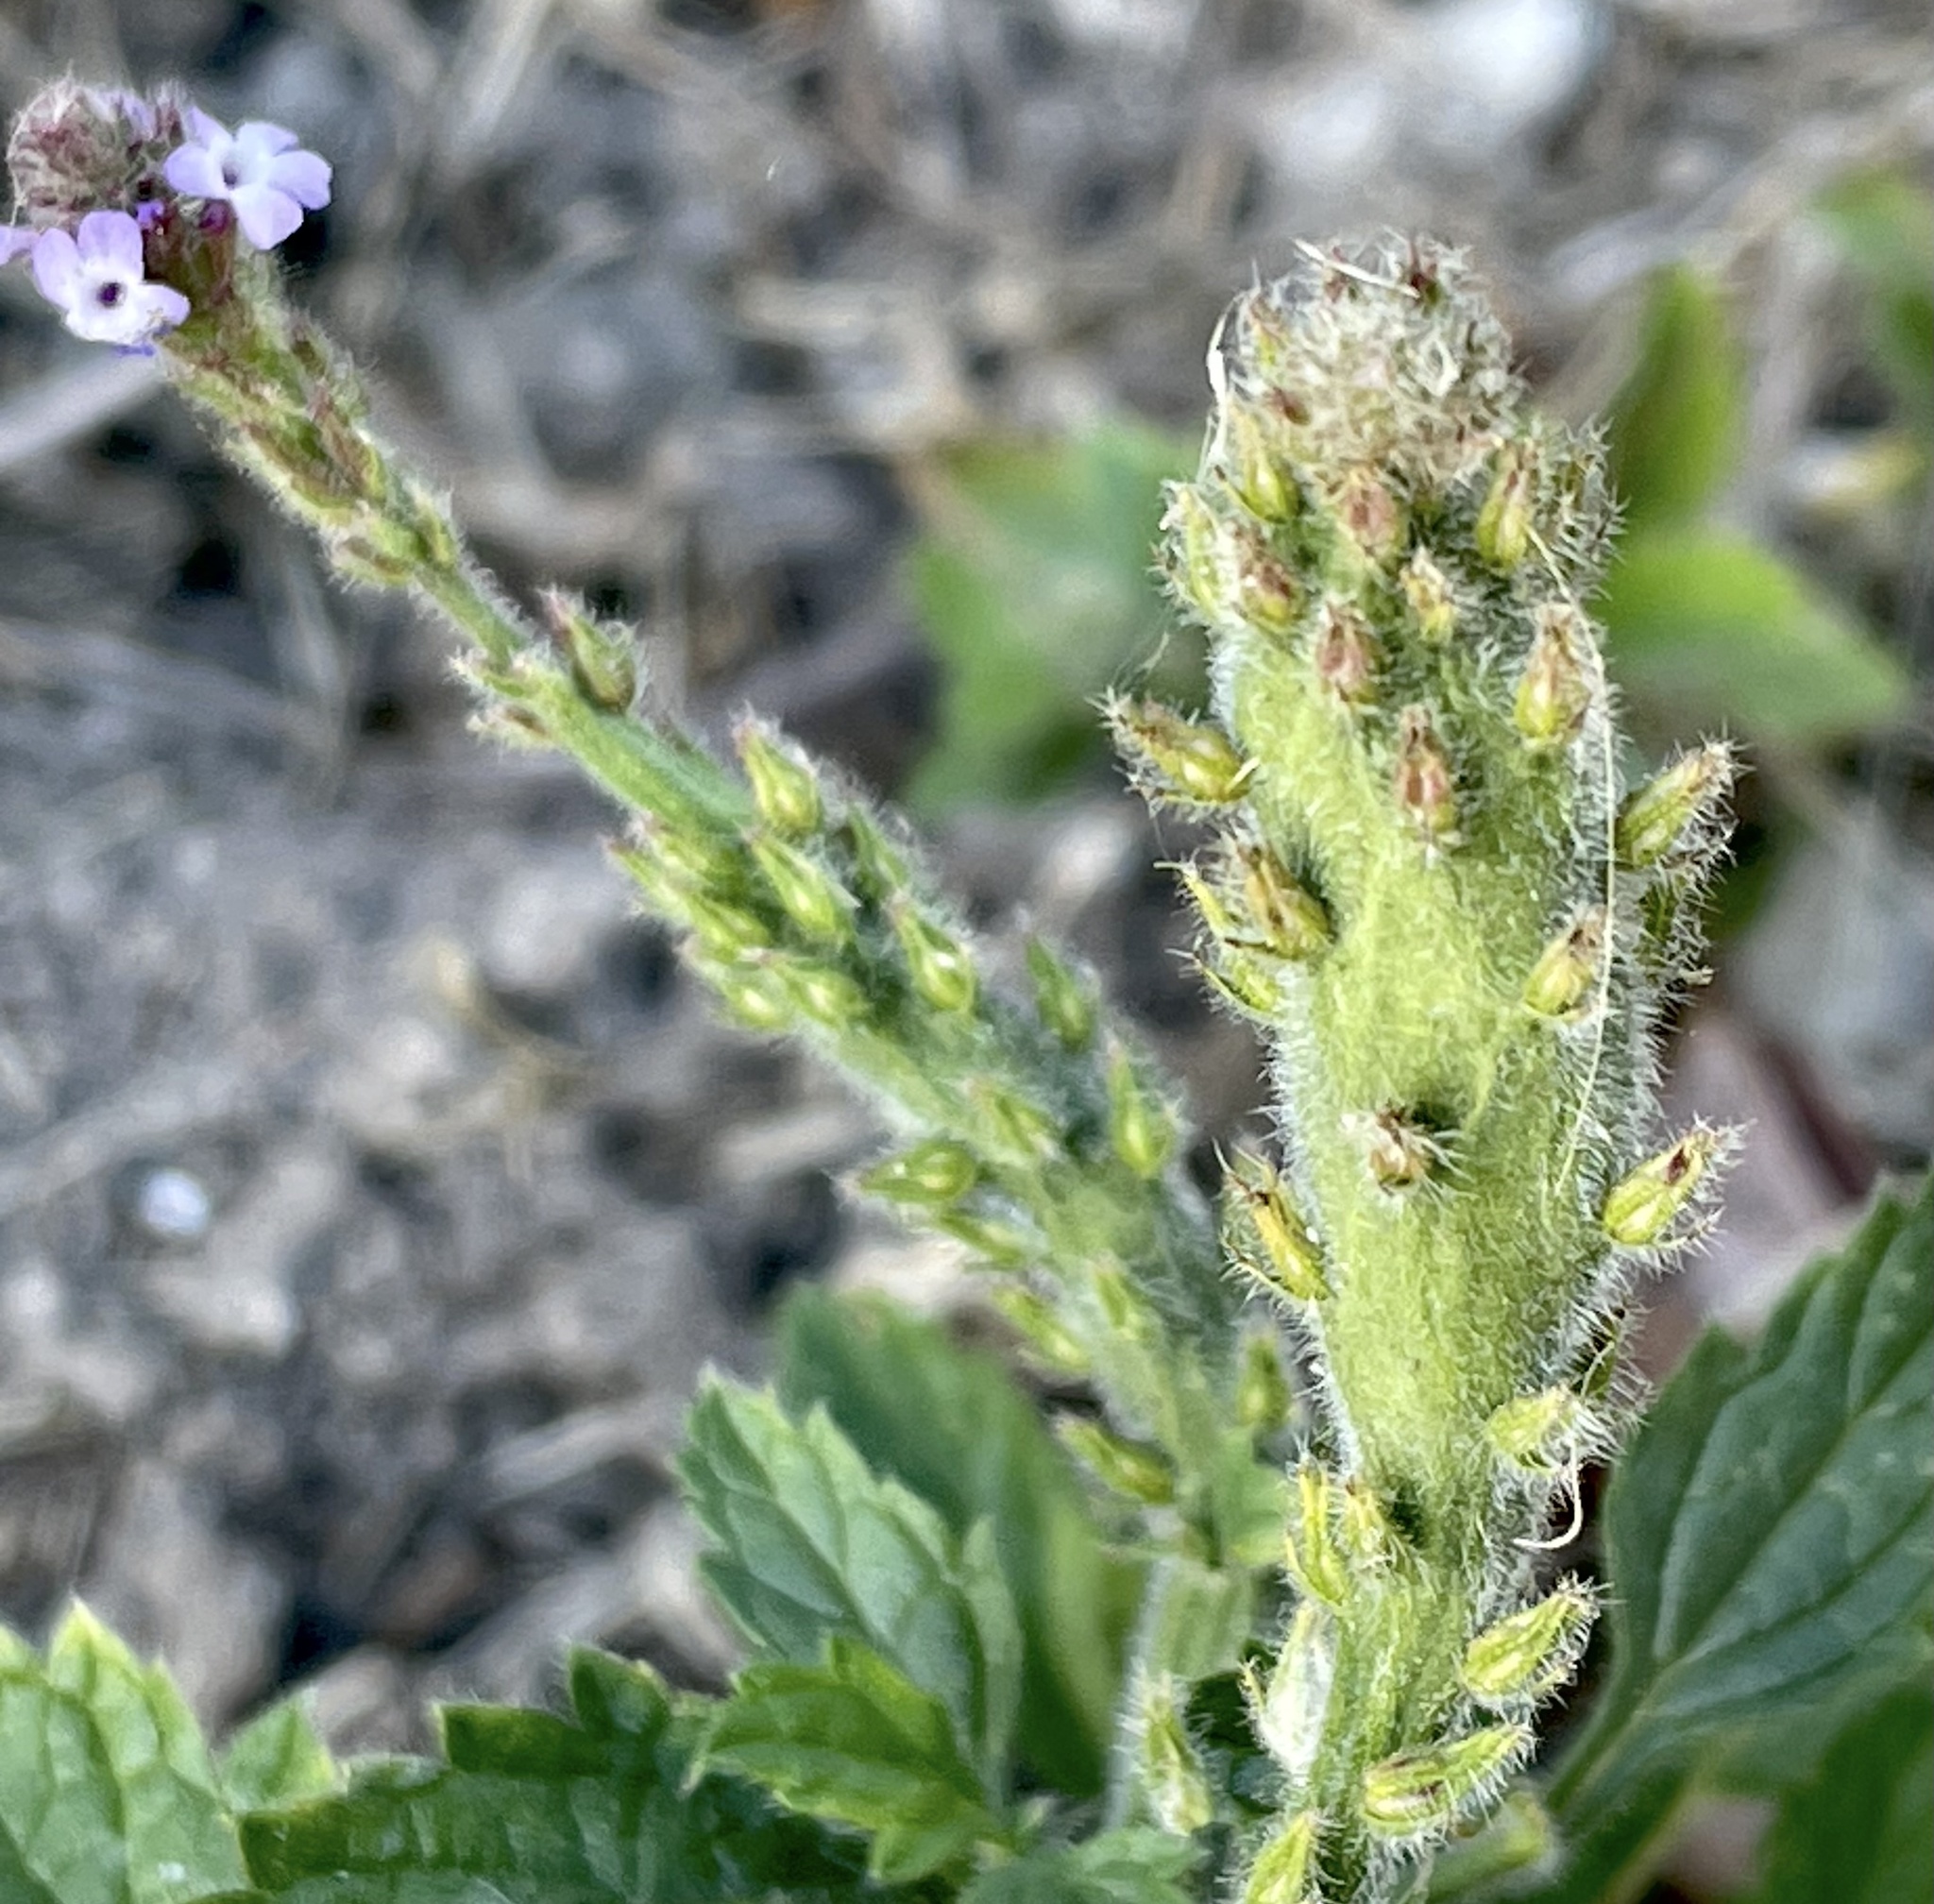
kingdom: Animalia
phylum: Arthropoda
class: Insecta
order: Diptera
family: Cecidomyiidae
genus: Neolasioptera
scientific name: Neolasioptera verbenae
